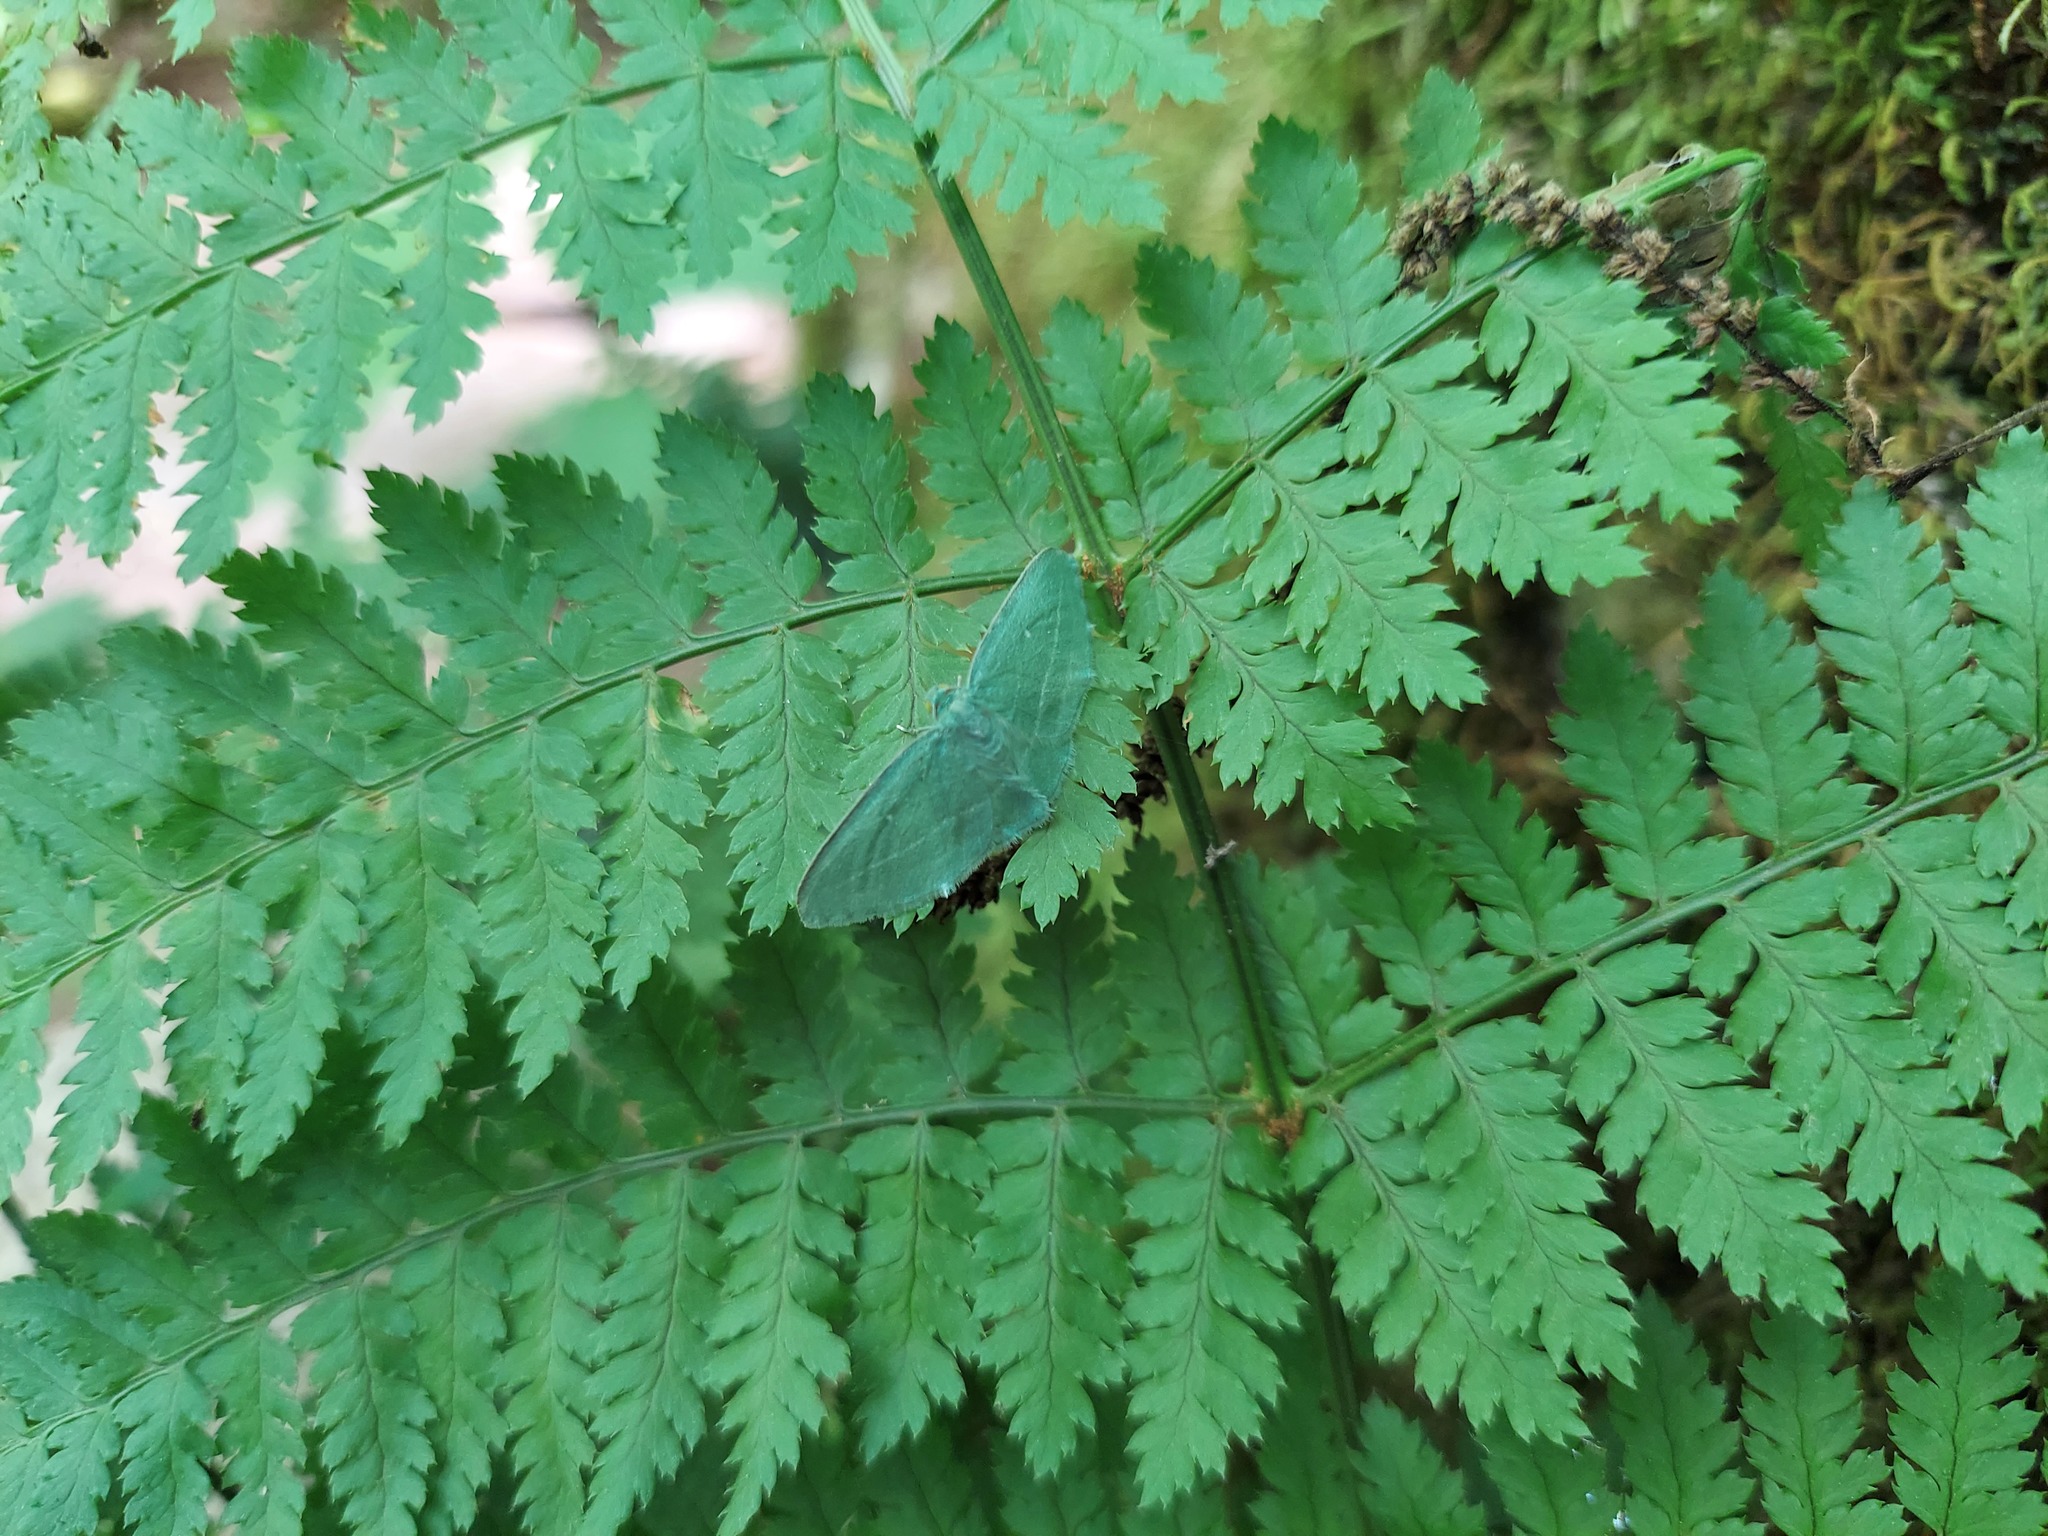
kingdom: Animalia
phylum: Arthropoda
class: Insecta
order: Lepidoptera
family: Geometridae
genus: Dyspteris
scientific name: Dyspteris abortivaria
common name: Bad-wing
